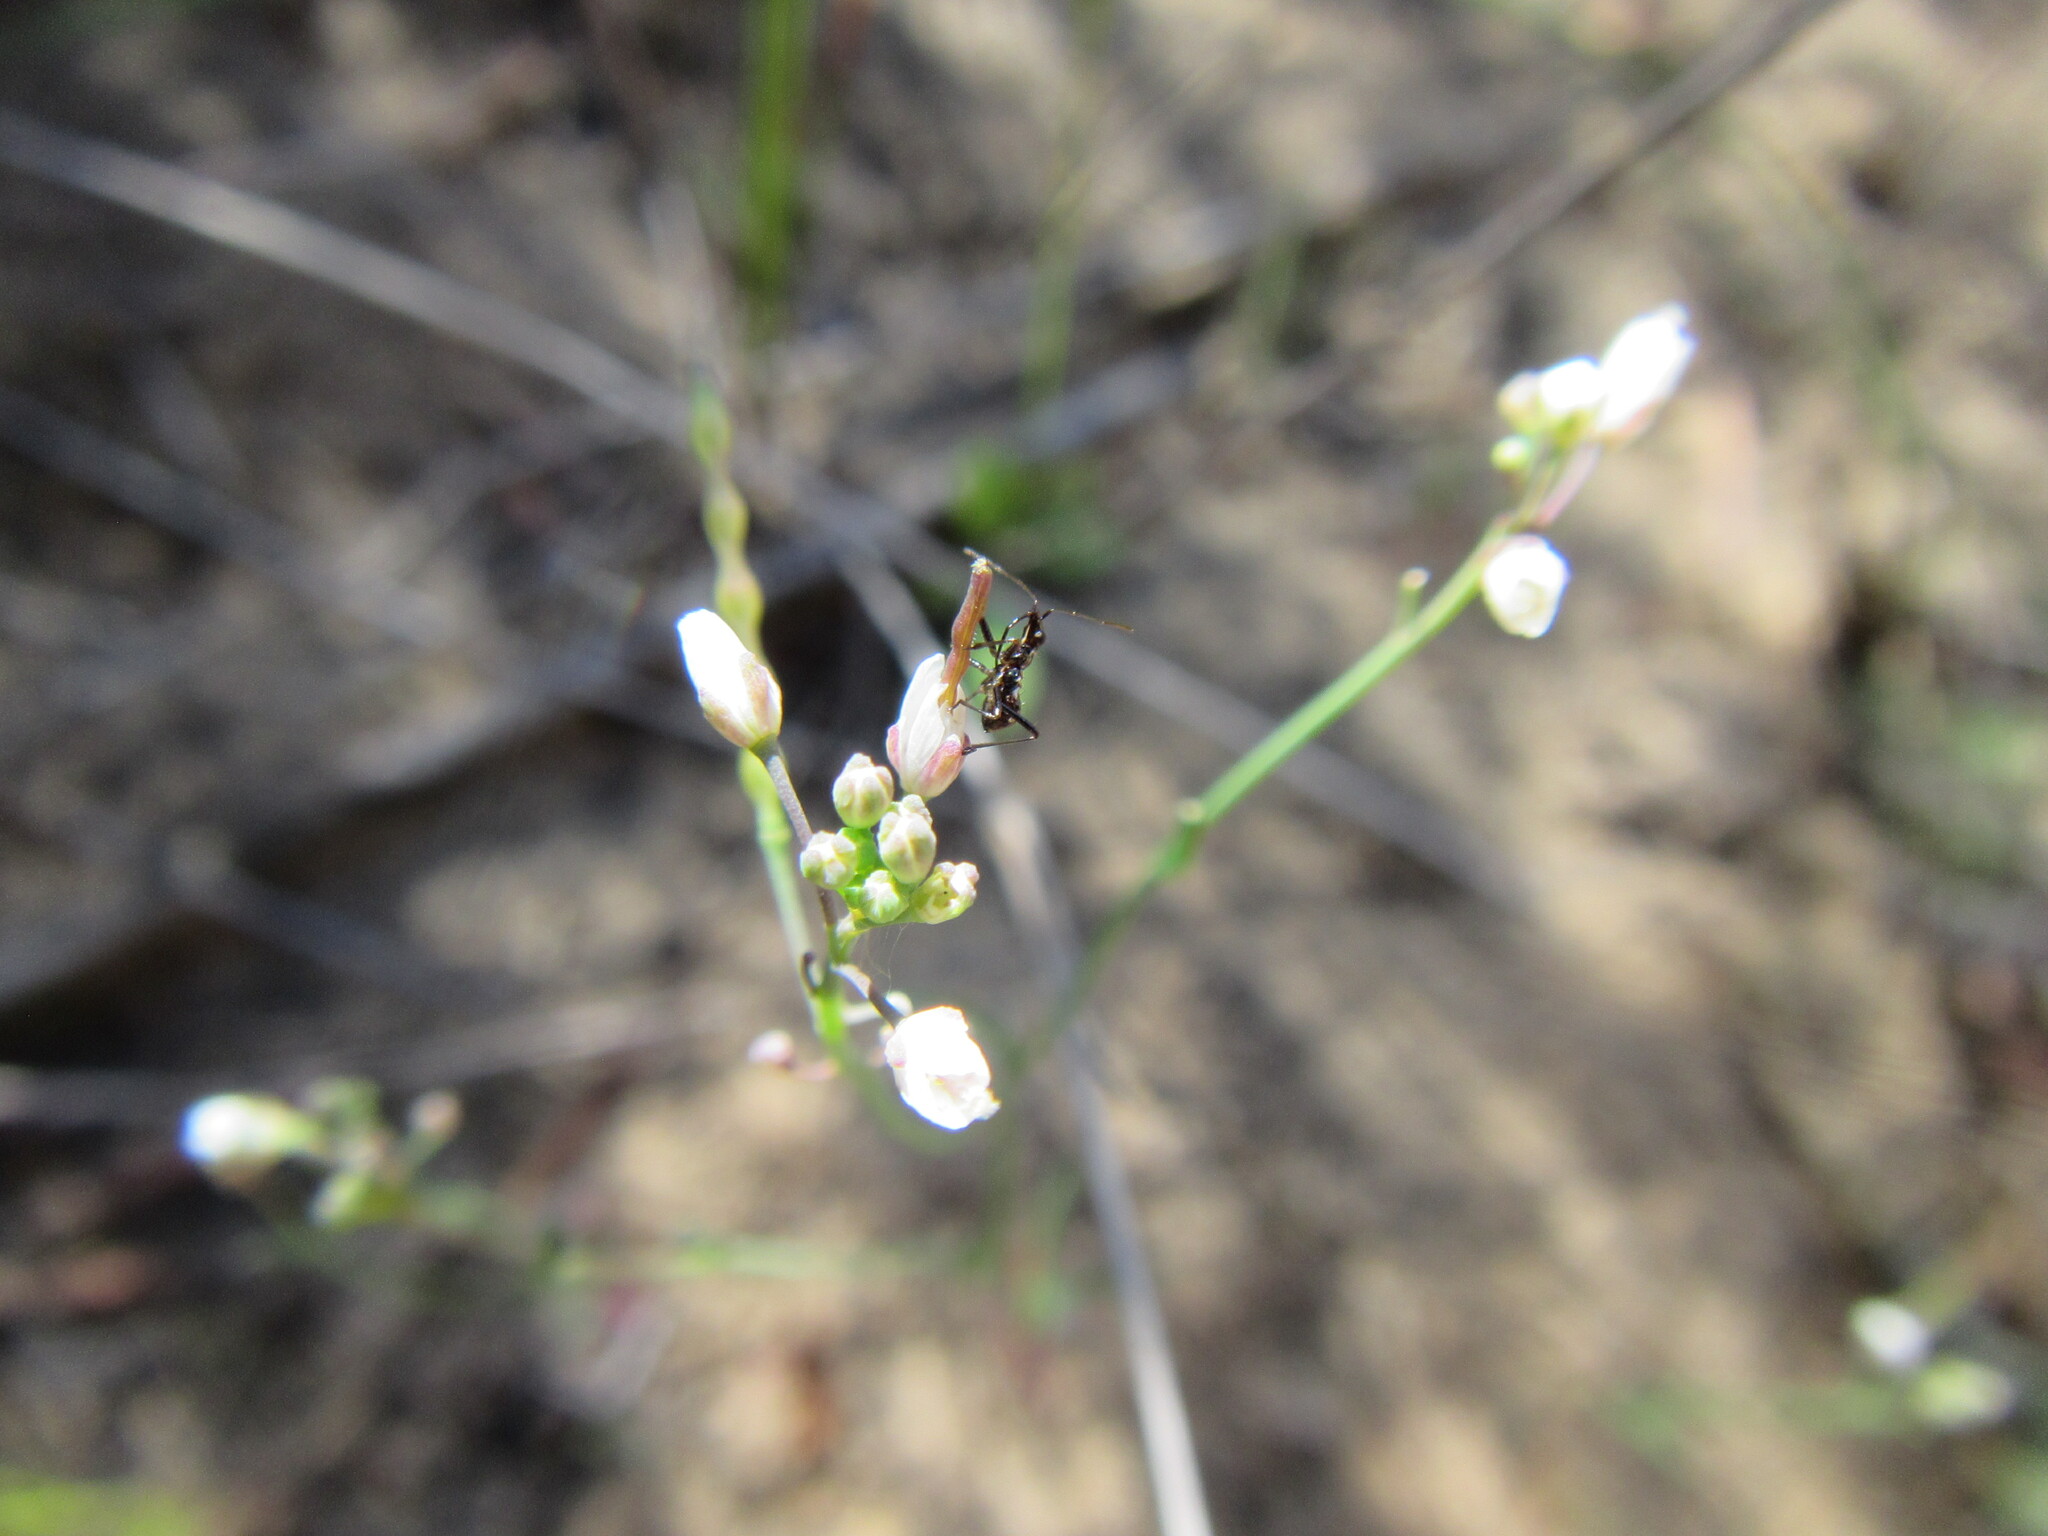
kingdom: Plantae
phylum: Tracheophyta
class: Magnoliopsida
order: Brassicales
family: Brassicaceae
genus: Heliophila
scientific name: Heliophila pusilla
